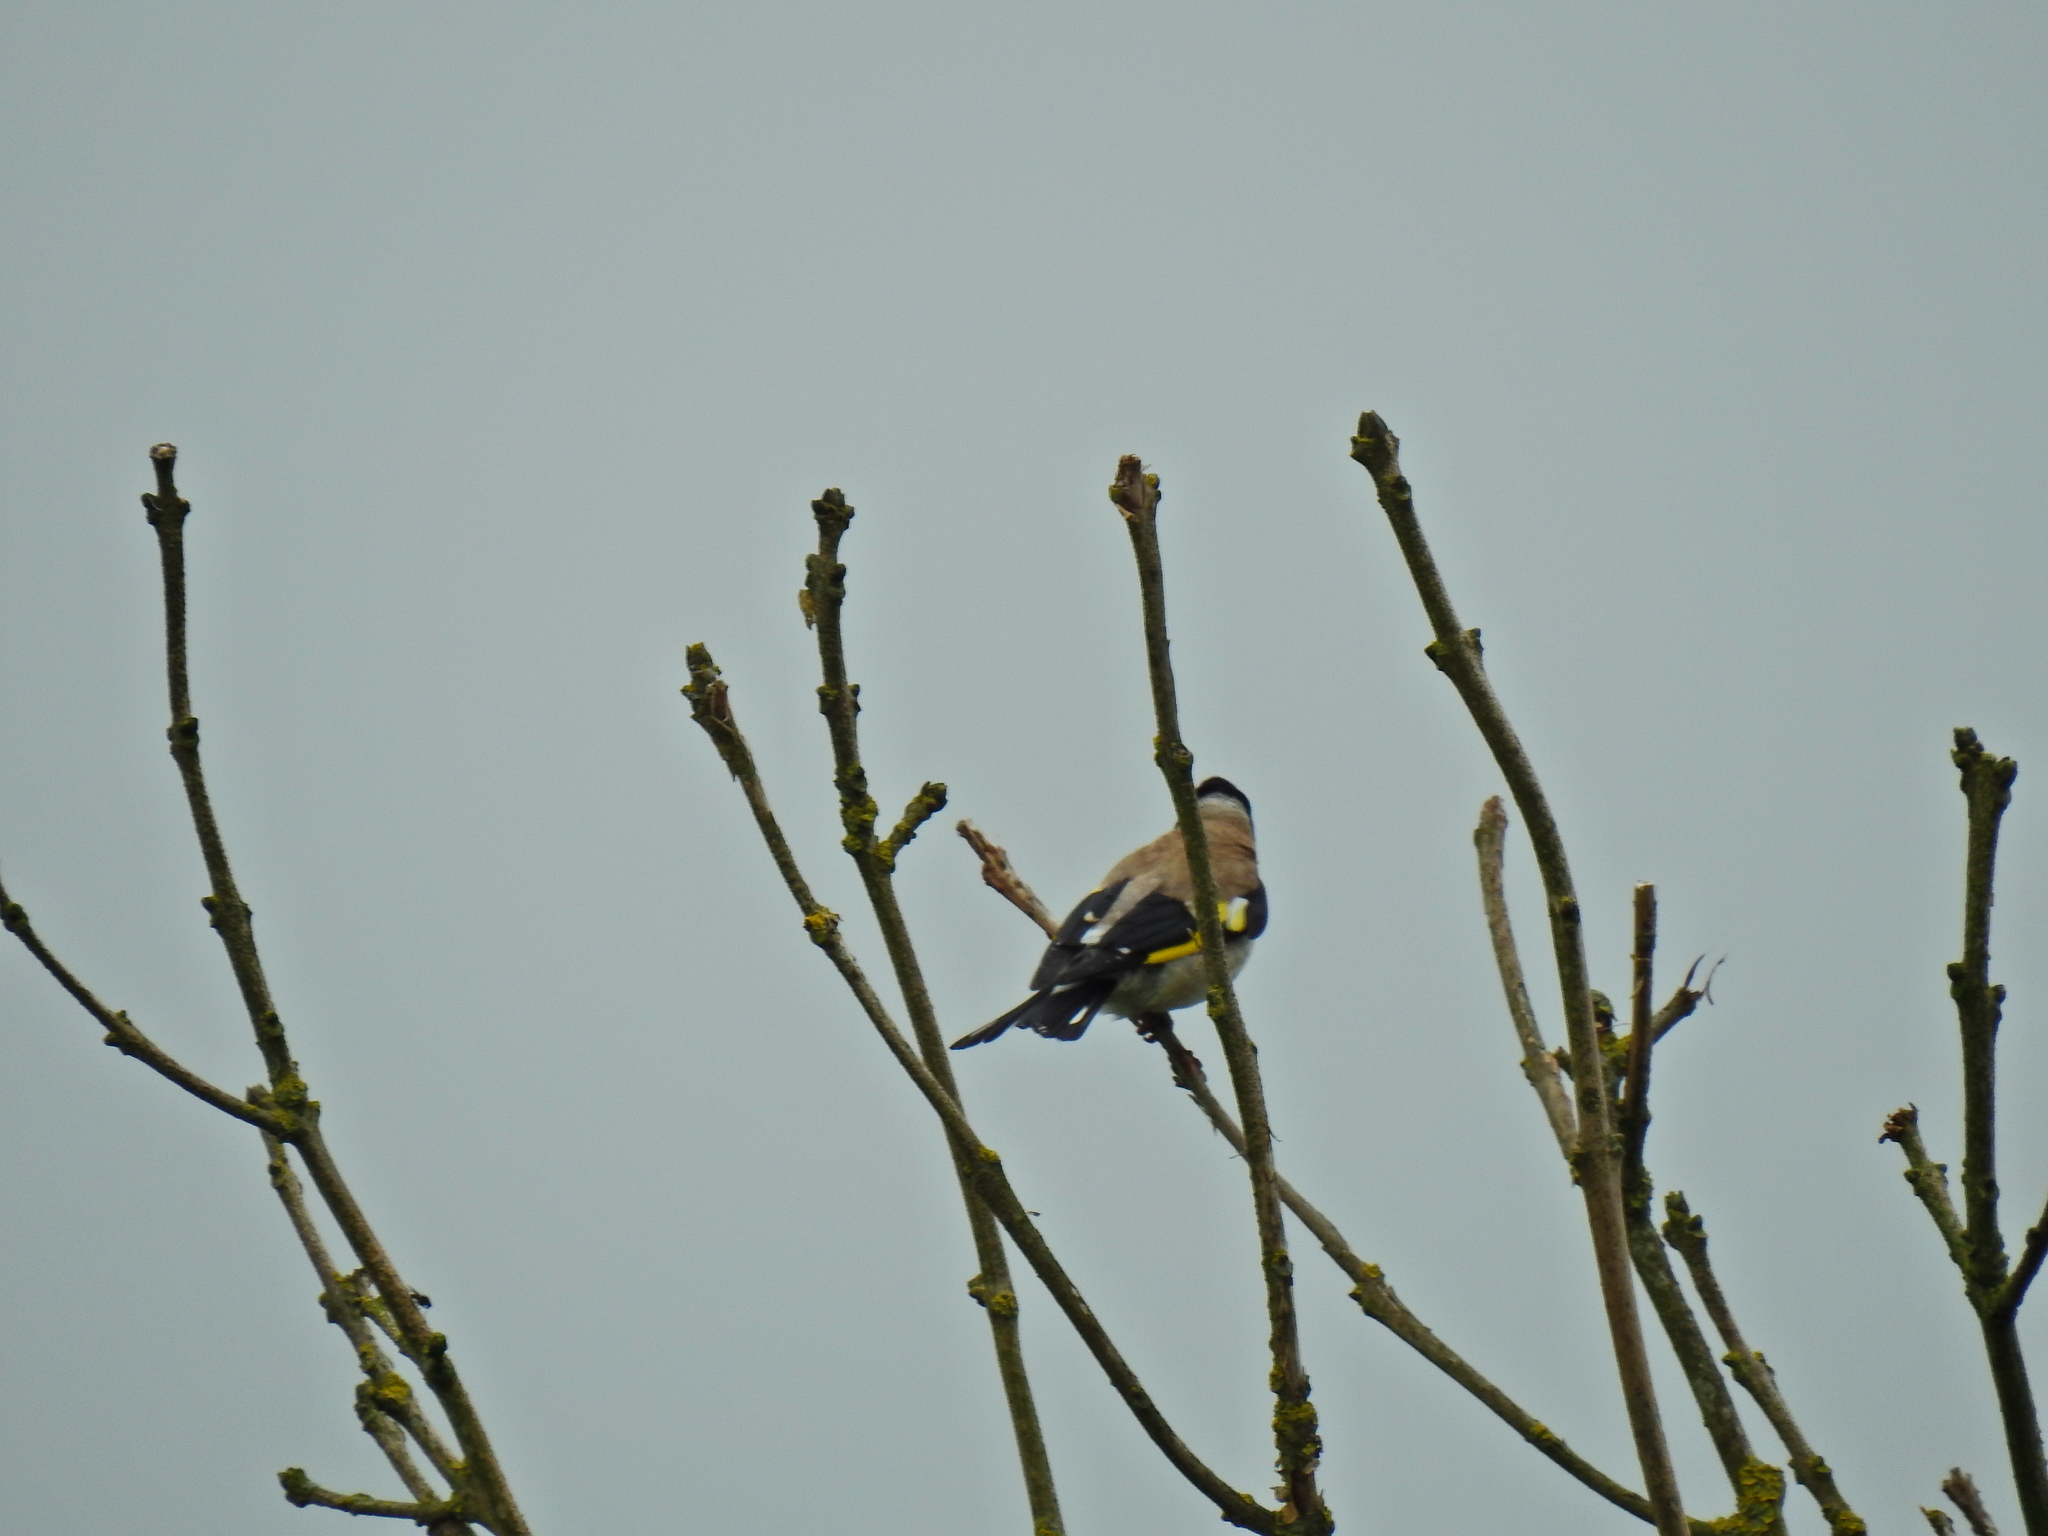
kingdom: Animalia
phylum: Chordata
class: Aves
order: Passeriformes
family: Fringillidae
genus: Carduelis
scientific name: Carduelis carduelis
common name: European goldfinch
